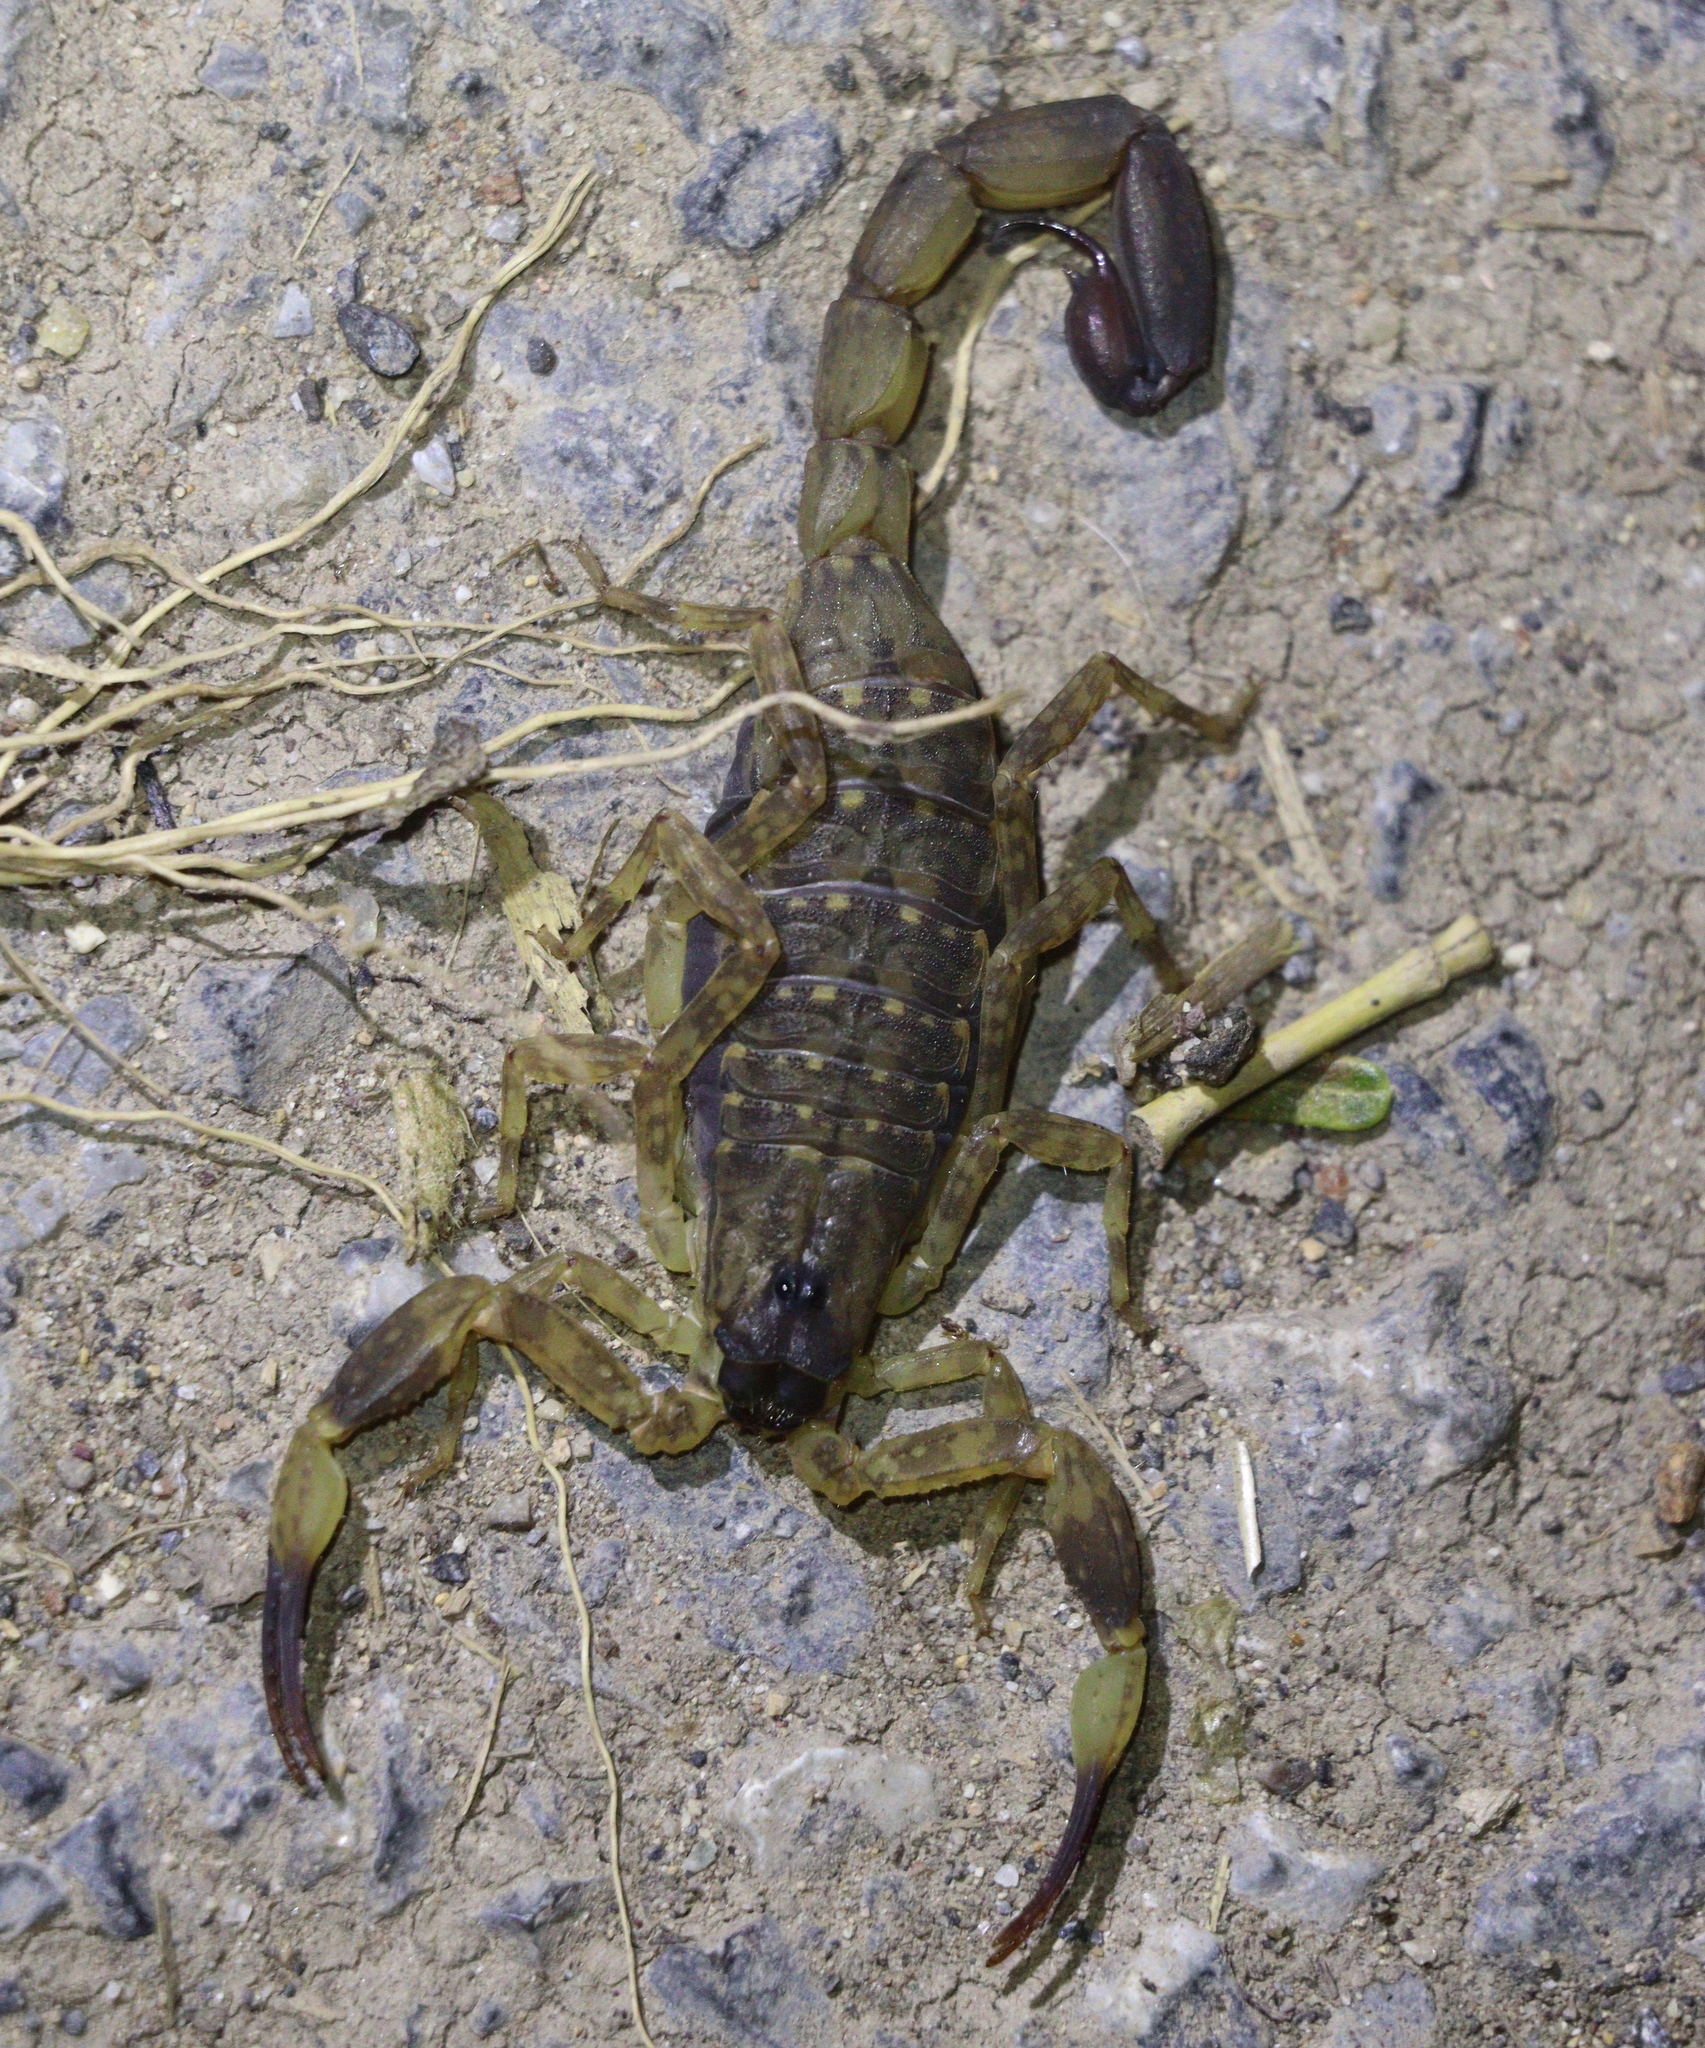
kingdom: Animalia
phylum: Arthropoda
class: Arachnida
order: Scorpiones
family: Buthidae
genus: Lychas
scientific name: Lychas mucronatus
